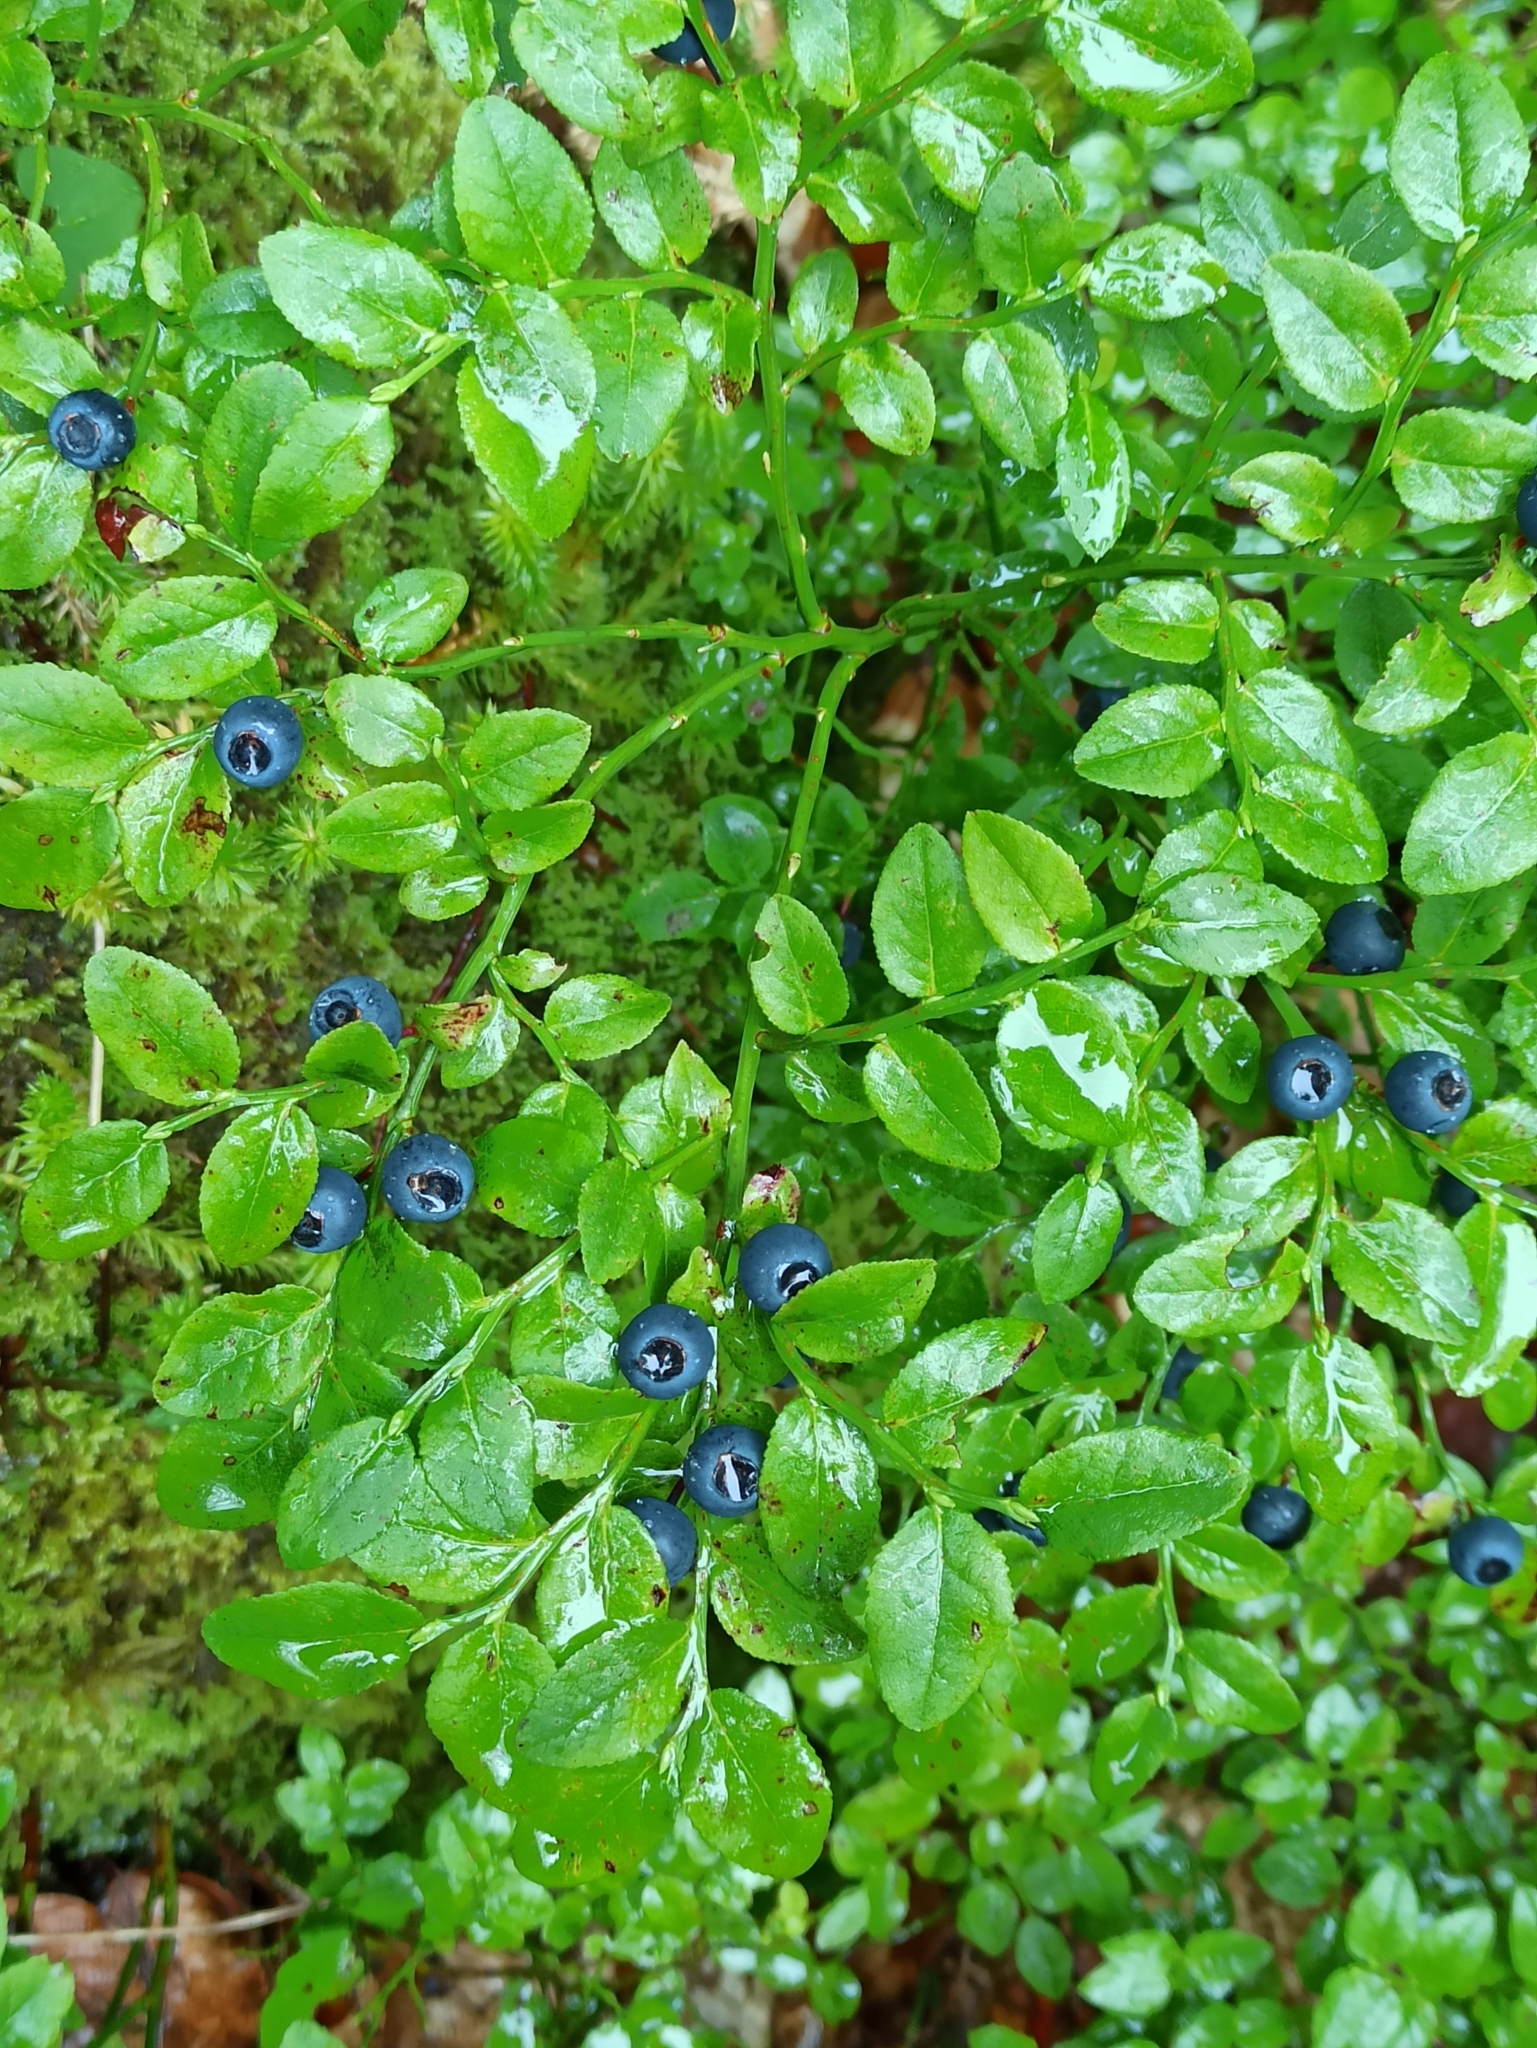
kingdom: Plantae
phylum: Tracheophyta
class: Magnoliopsida
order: Ericales
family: Ericaceae
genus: Vaccinium
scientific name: Vaccinium myrtillus
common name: Bilberry
